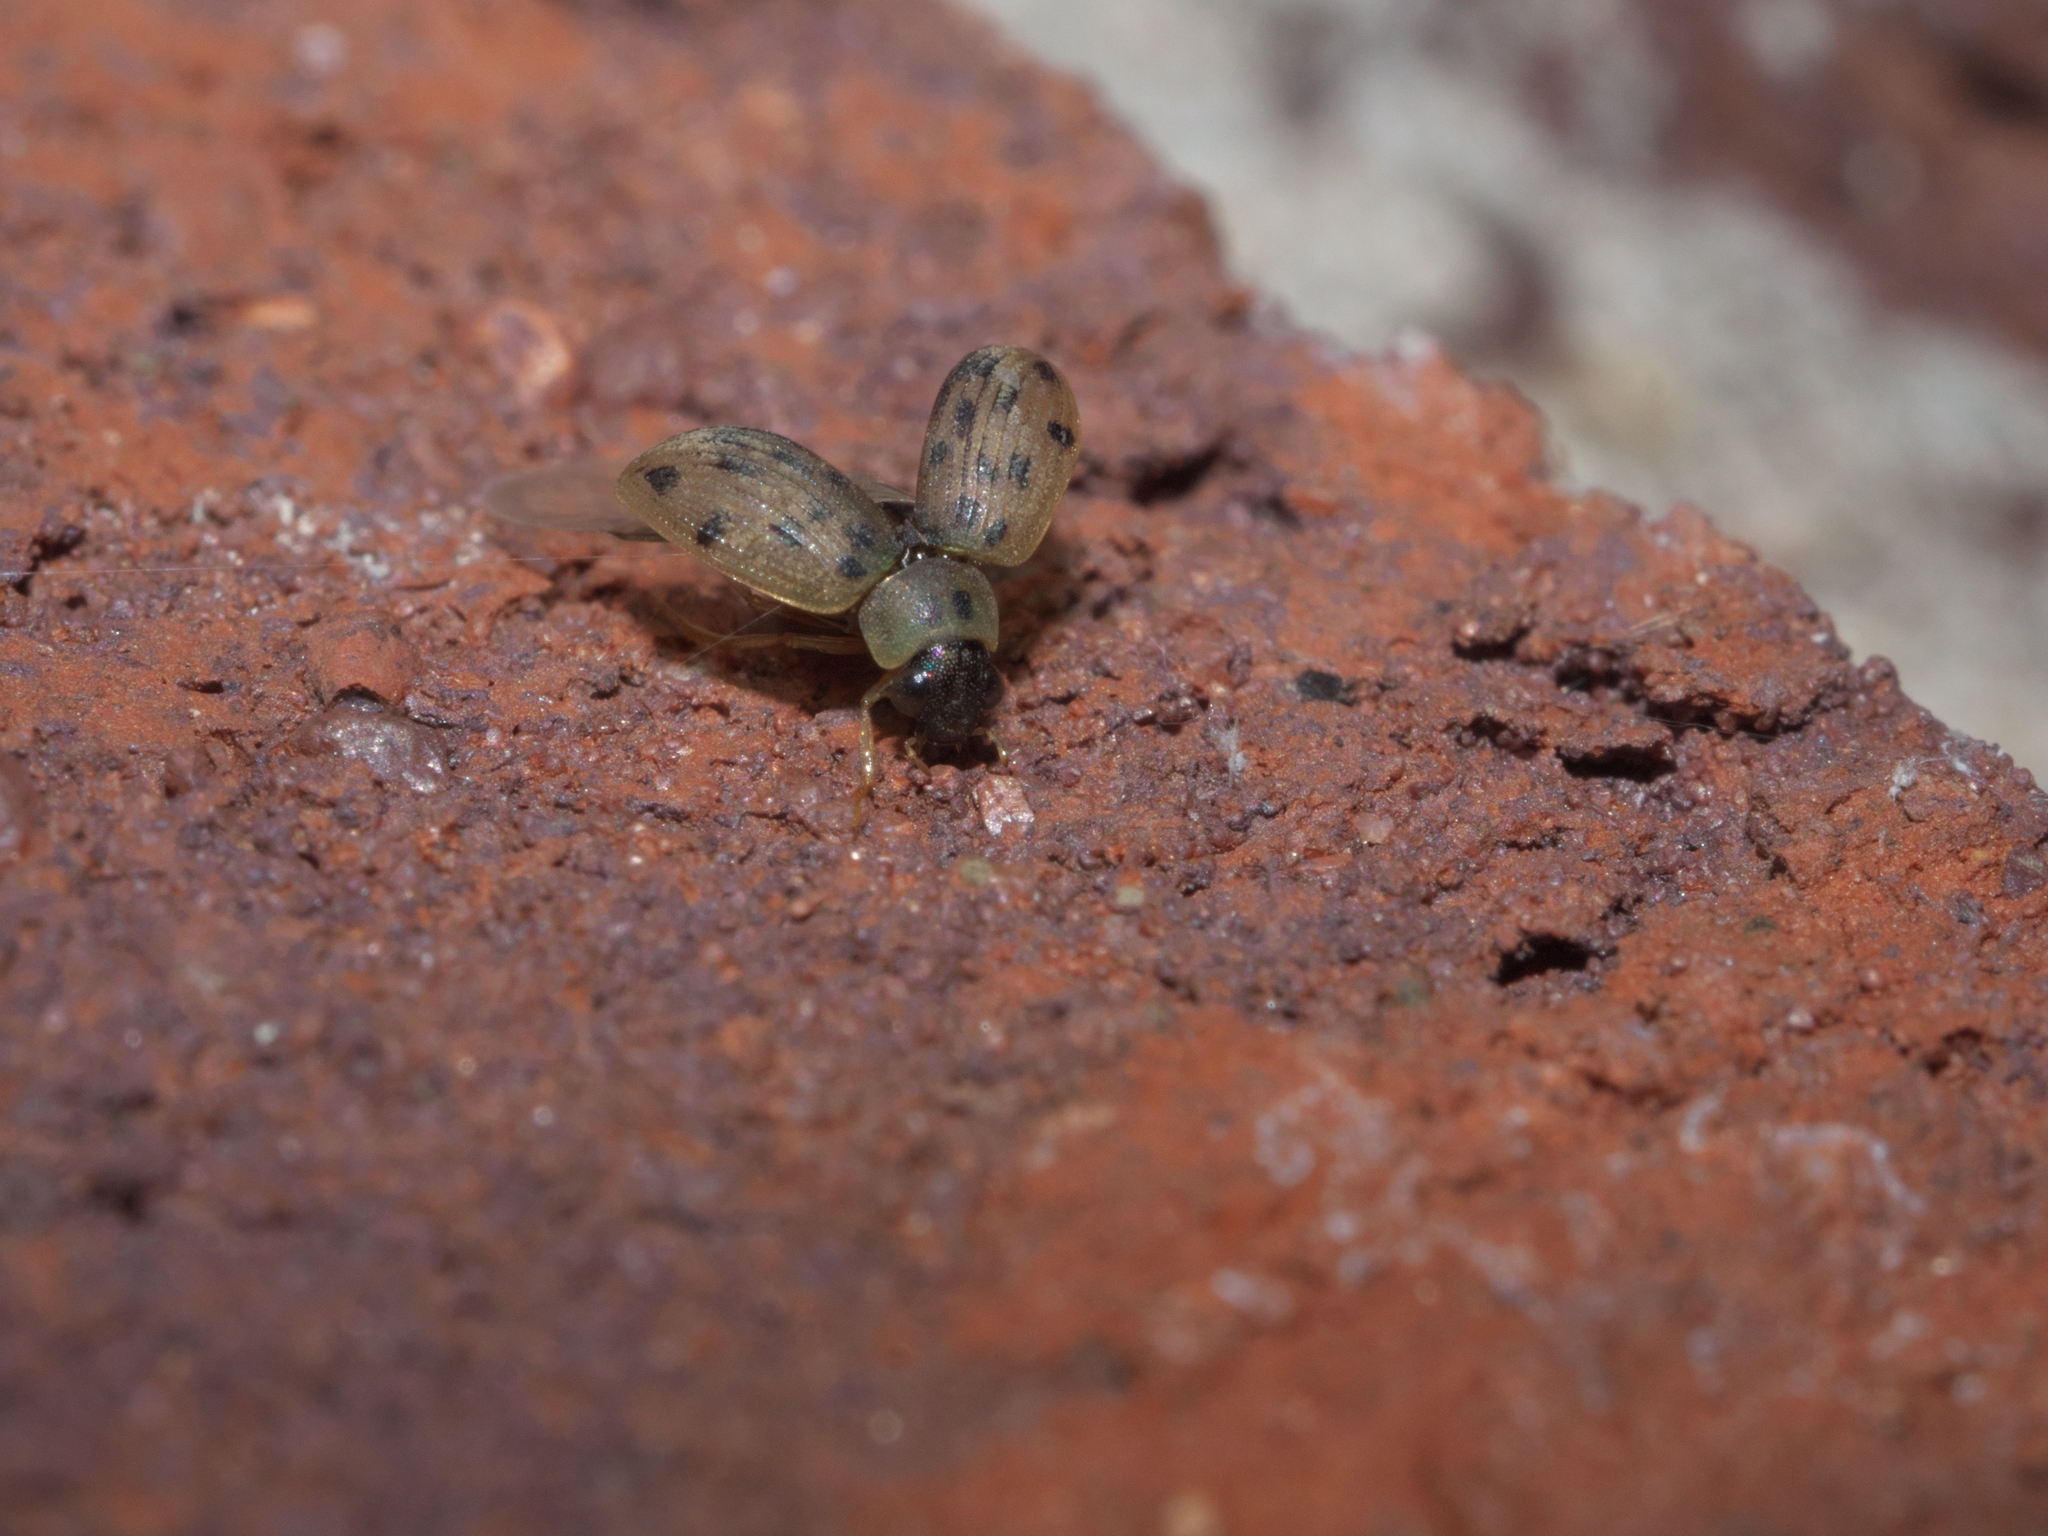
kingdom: Animalia
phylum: Arthropoda
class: Insecta
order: Coleoptera
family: Hydrophilidae
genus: Berosus
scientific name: Berosus pantherinus
